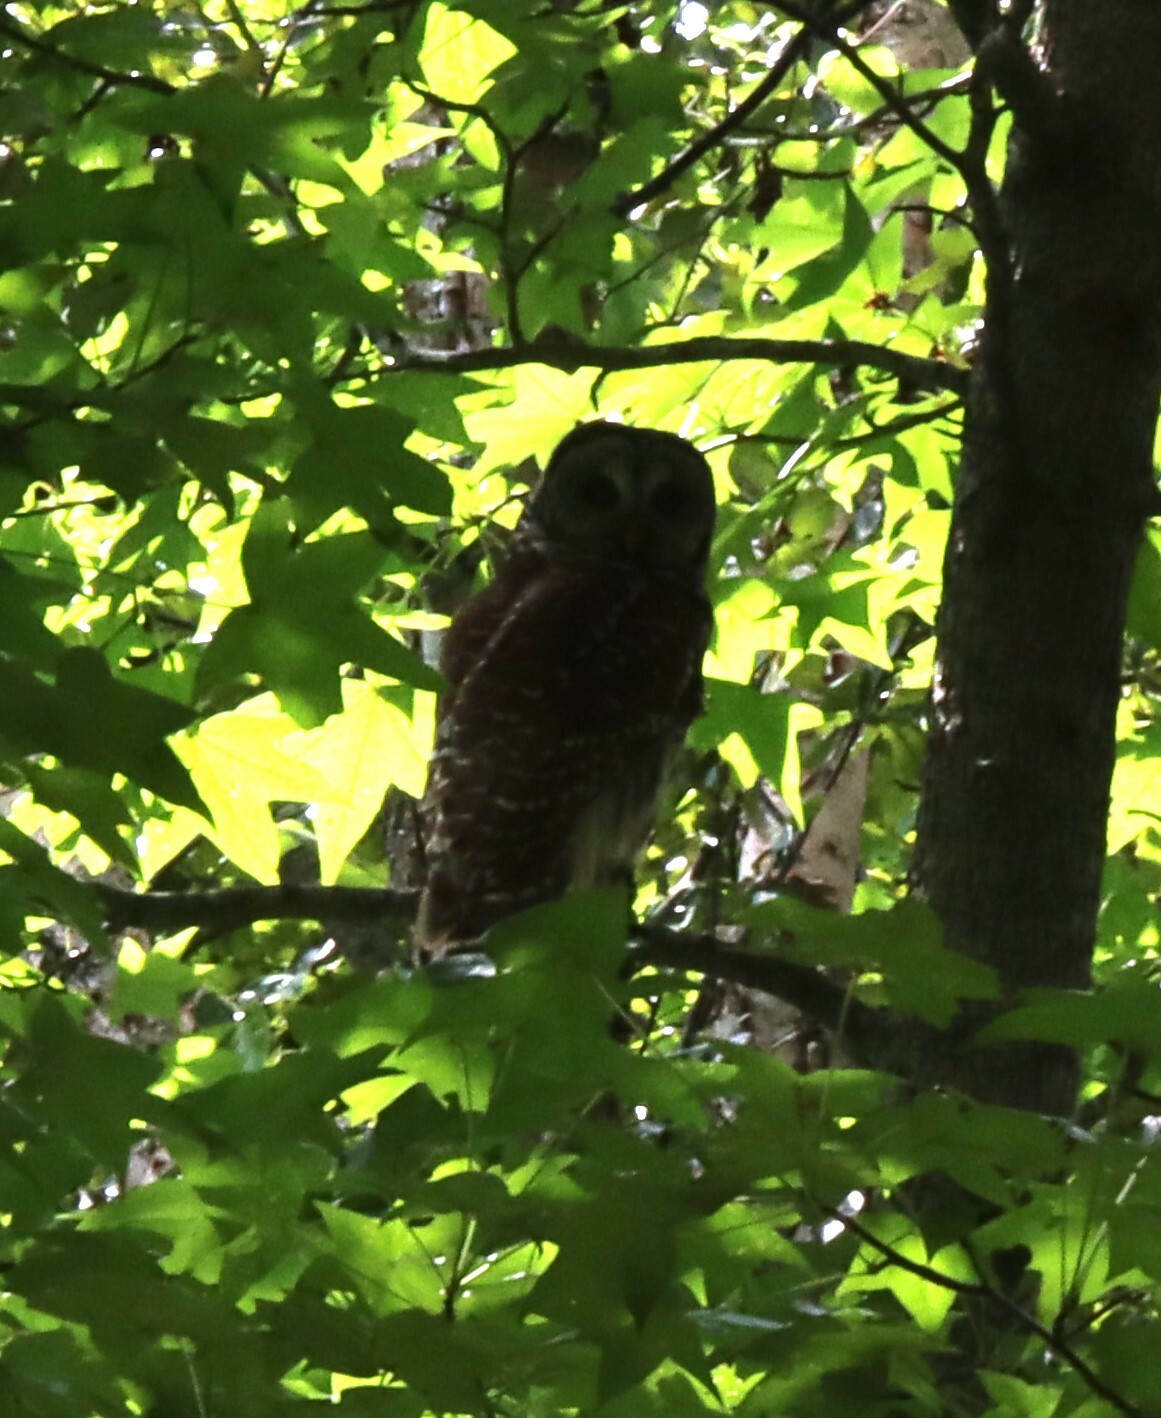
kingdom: Animalia
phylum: Chordata
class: Aves
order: Strigiformes
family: Strigidae
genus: Strix
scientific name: Strix varia
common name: Barred owl
